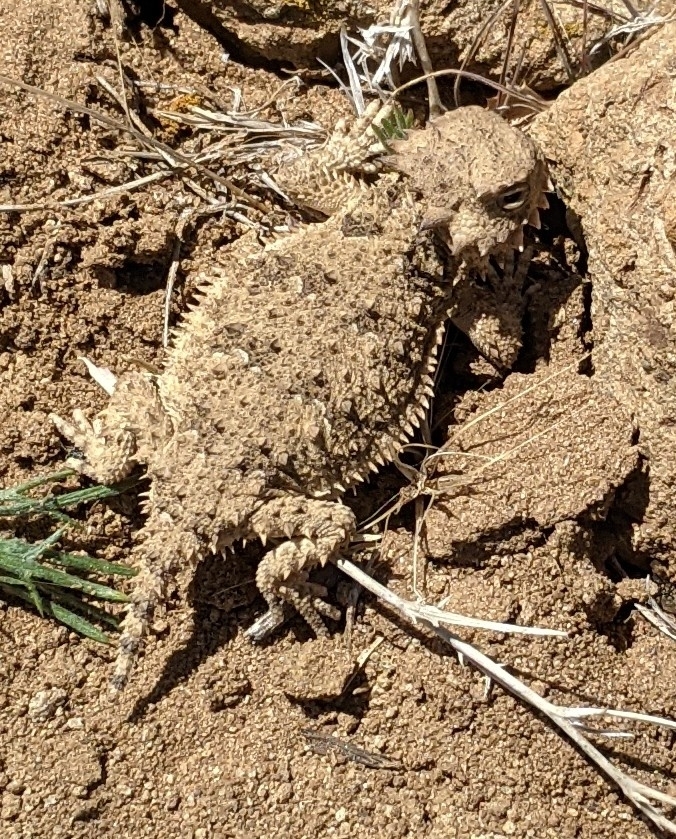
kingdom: Animalia
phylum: Chordata
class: Squamata
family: Phrynosomatidae
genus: Phrynosoma
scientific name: Phrynosoma blainvillii
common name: San diego horned lizard
